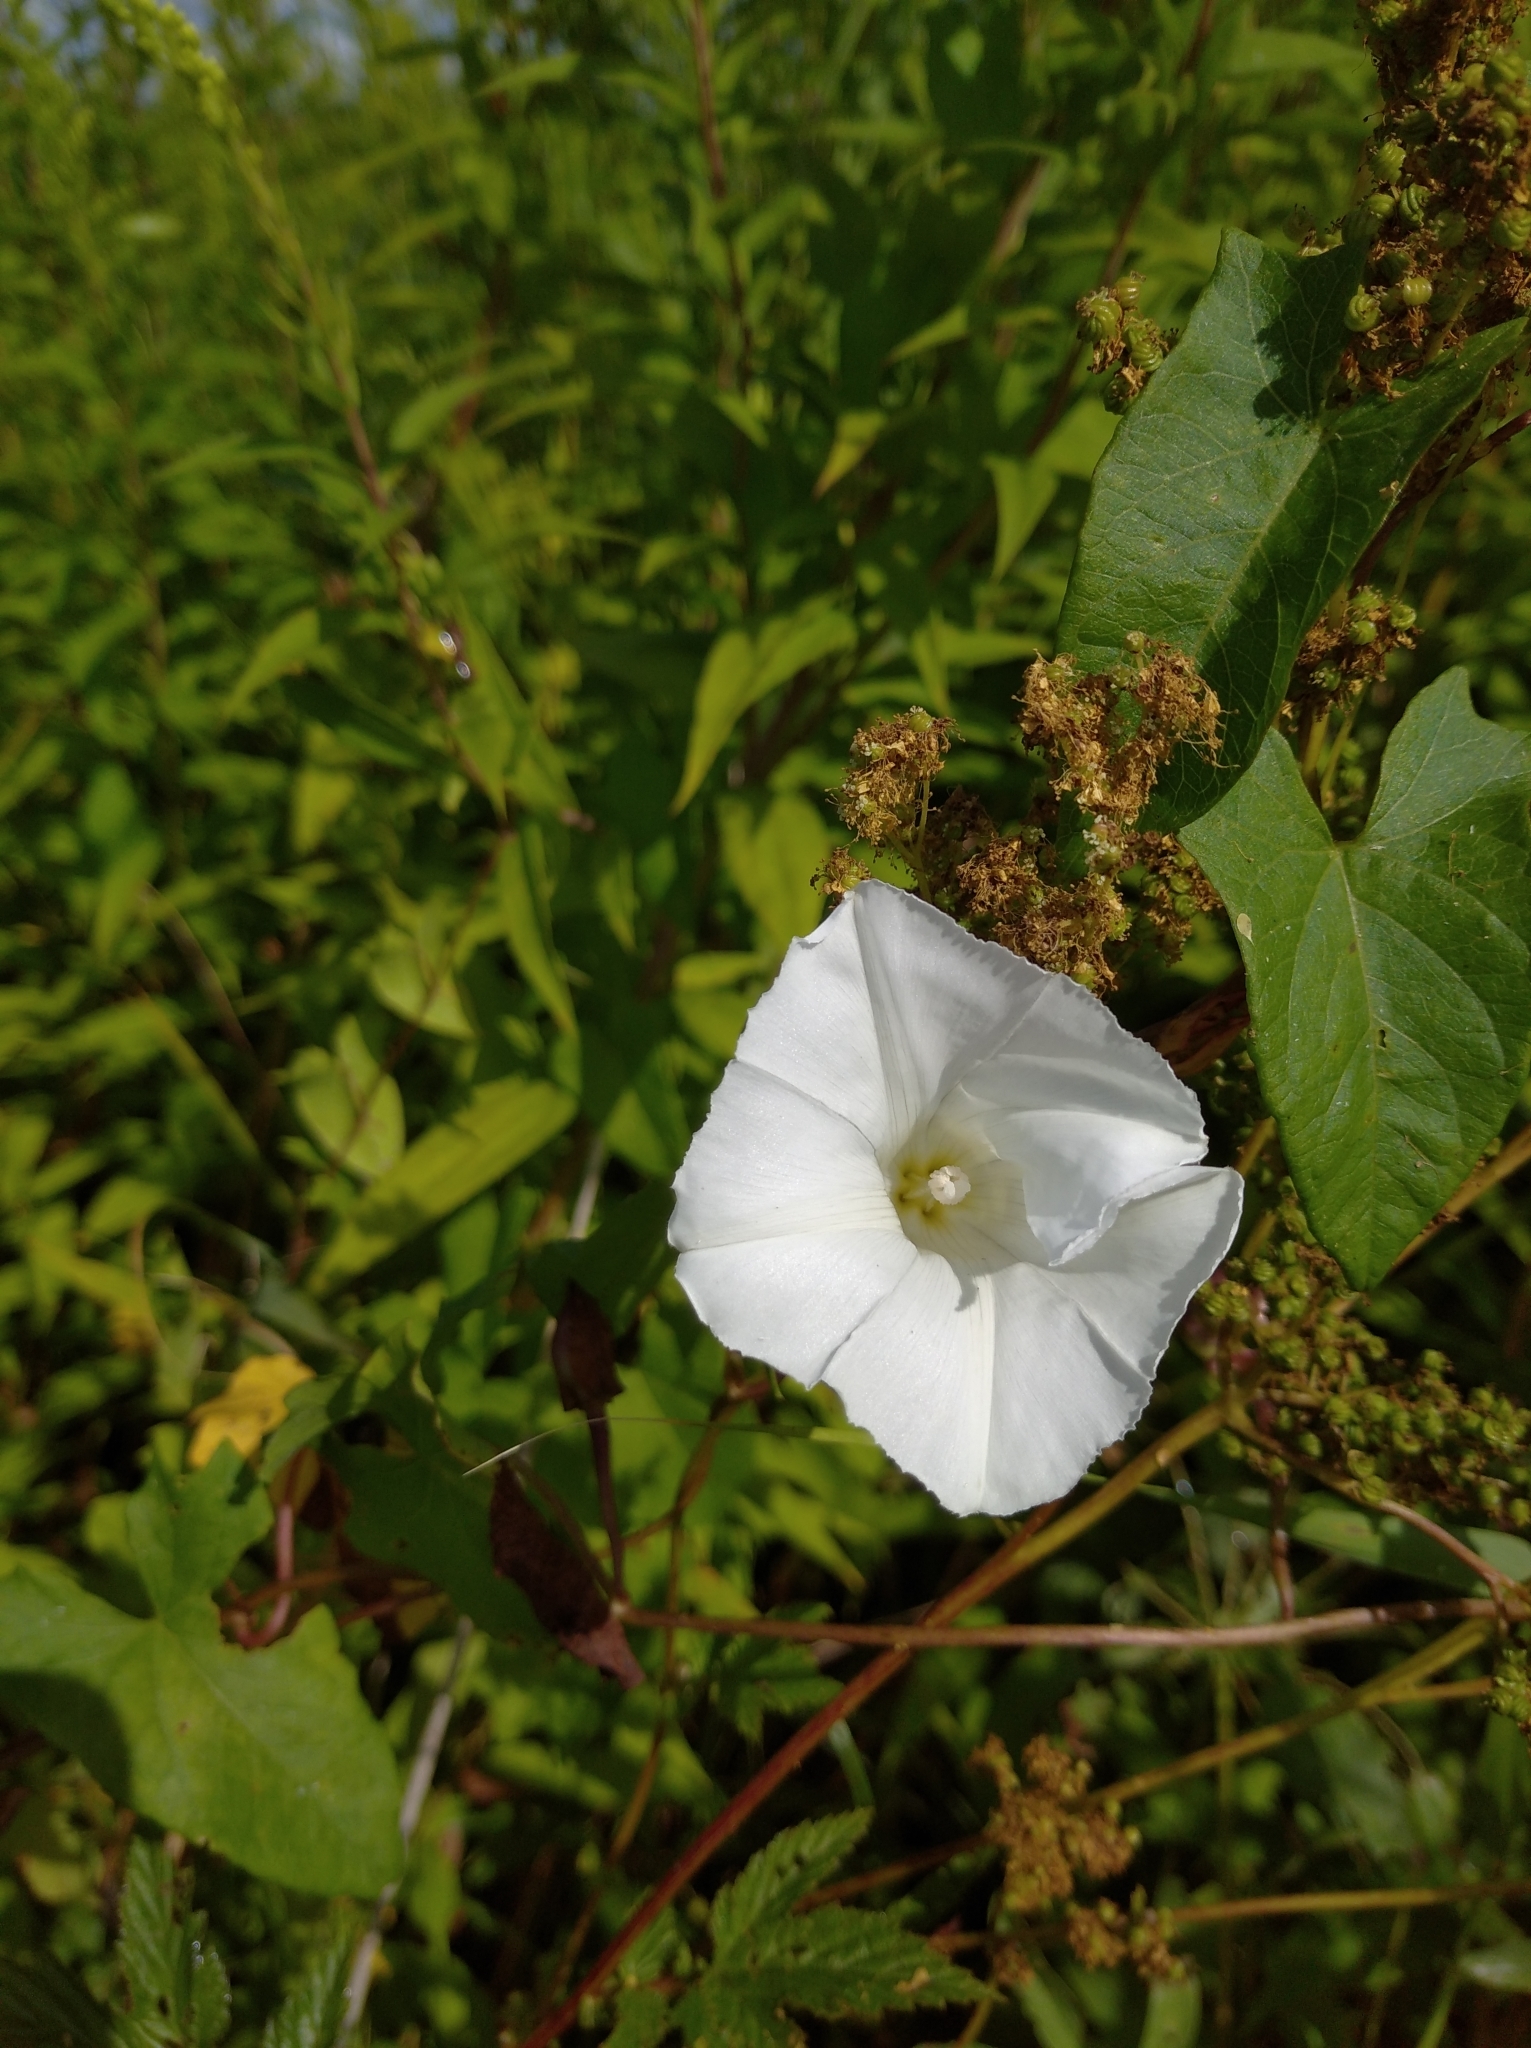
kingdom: Plantae
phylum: Tracheophyta
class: Magnoliopsida
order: Solanales
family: Convolvulaceae
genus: Calystegia
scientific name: Calystegia sepium
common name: Hedge bindweed
